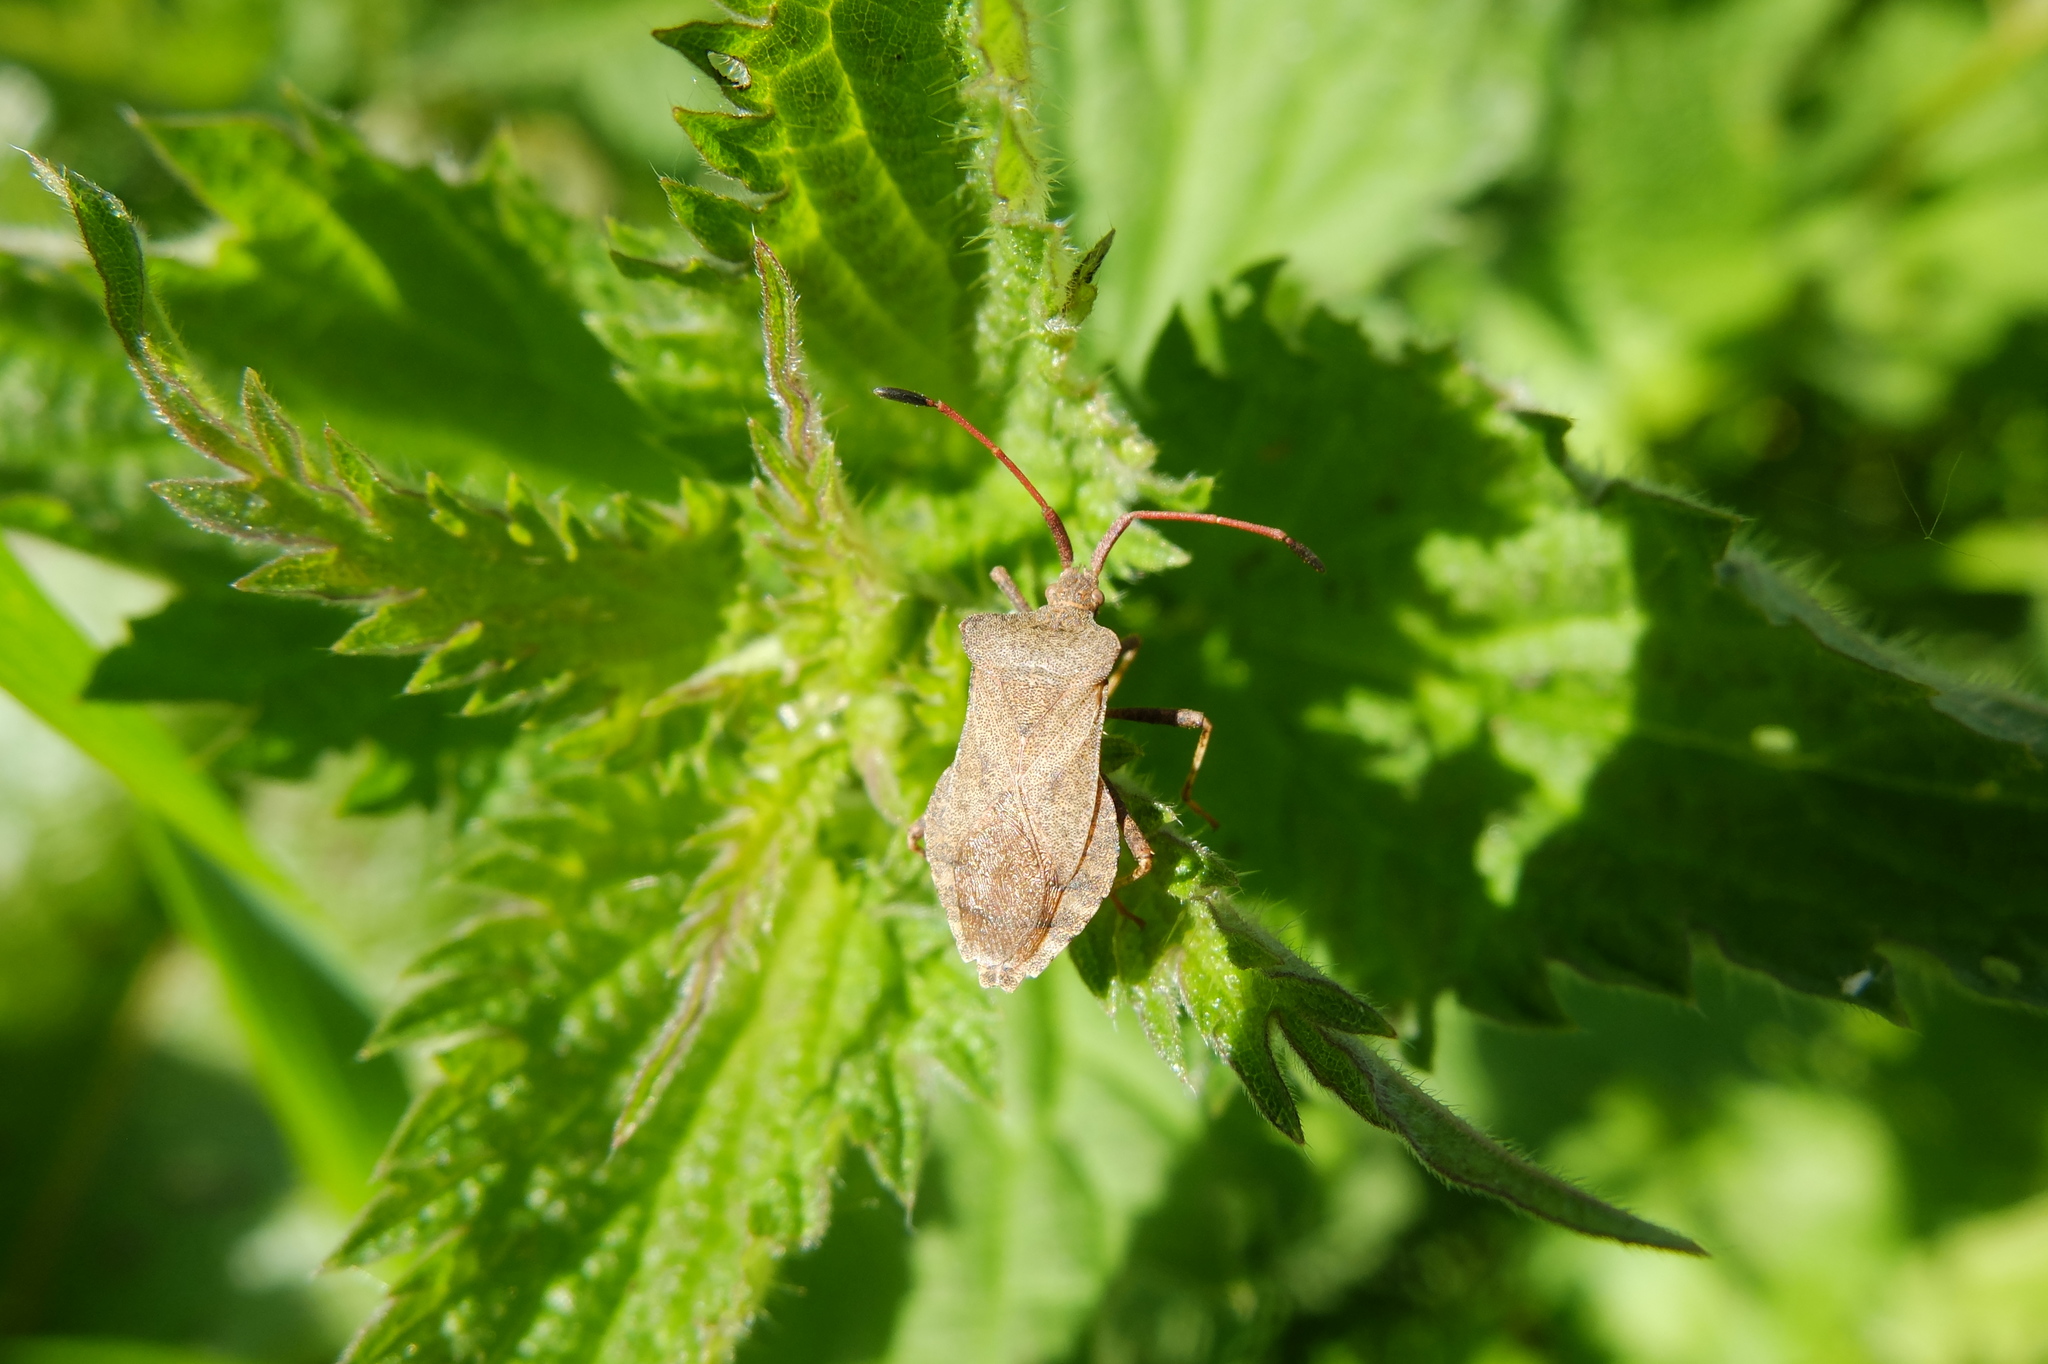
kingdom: Animalia
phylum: Arthropoda
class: Insecta
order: Hemiptera
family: Coreidae
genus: Coreus
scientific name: Coreus marginatus
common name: Dock bug
